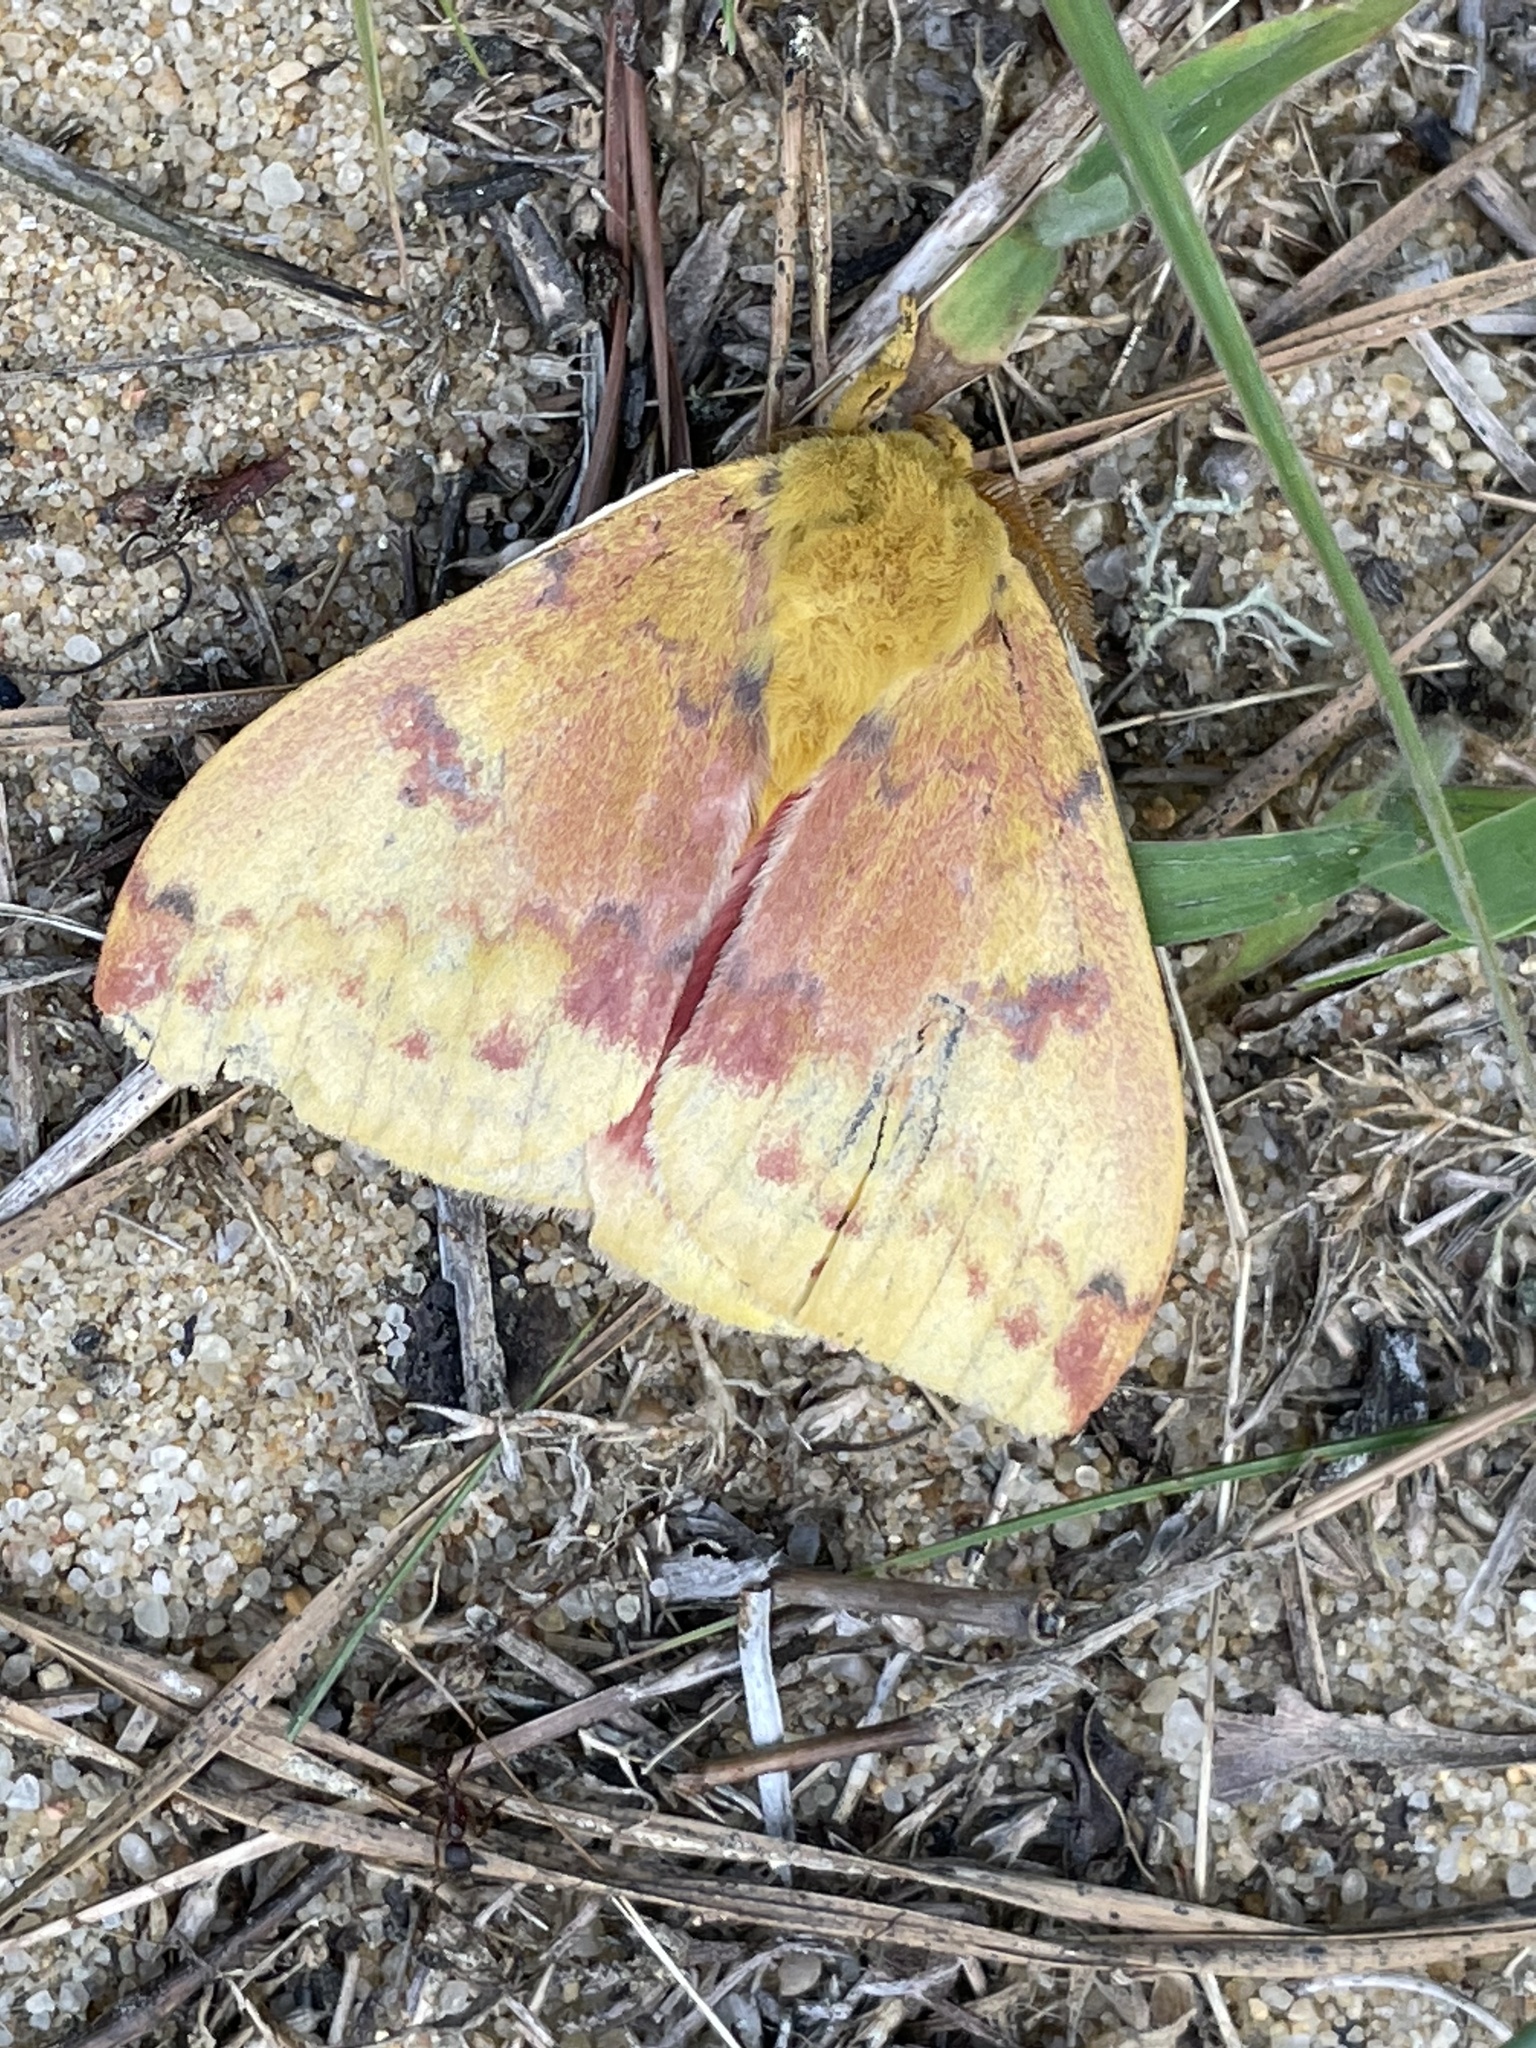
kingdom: Animalia
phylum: Arthropoda
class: Insecta
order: Lepidoptera
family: Saturniidae
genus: Automeris
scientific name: Automeris io
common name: Io moth
